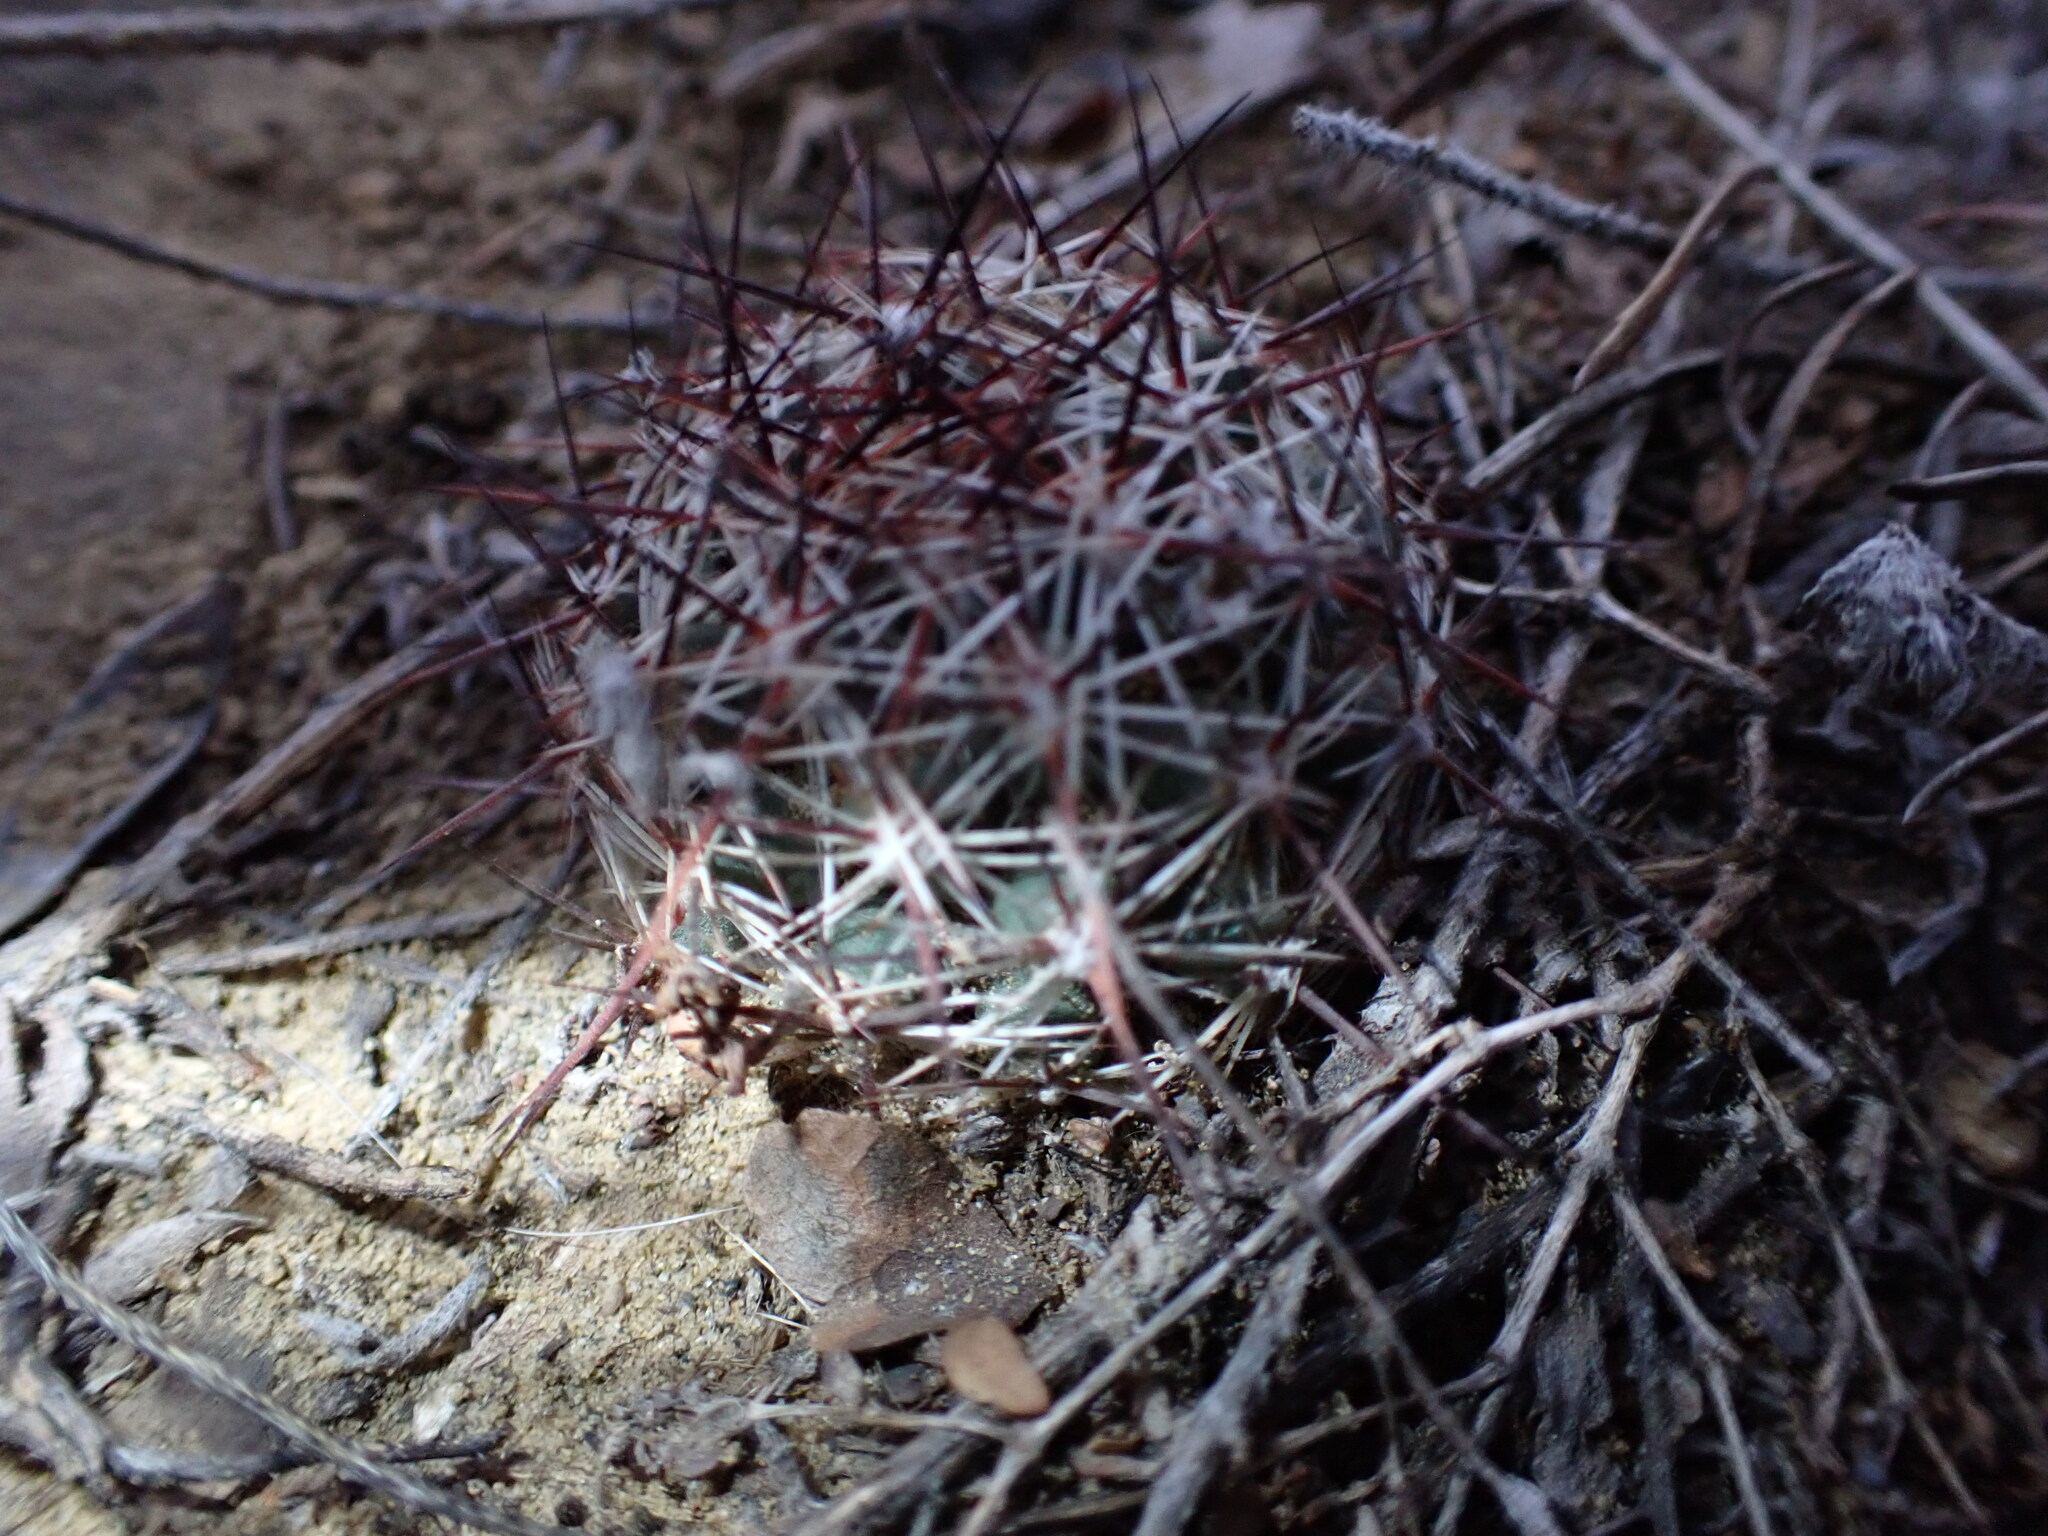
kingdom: Plantae
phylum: Tracheophyta
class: Magnoliopsida
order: Caryophyllales
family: Cactaceae
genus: Pelecyphora
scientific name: Pelecyphora vivipara
